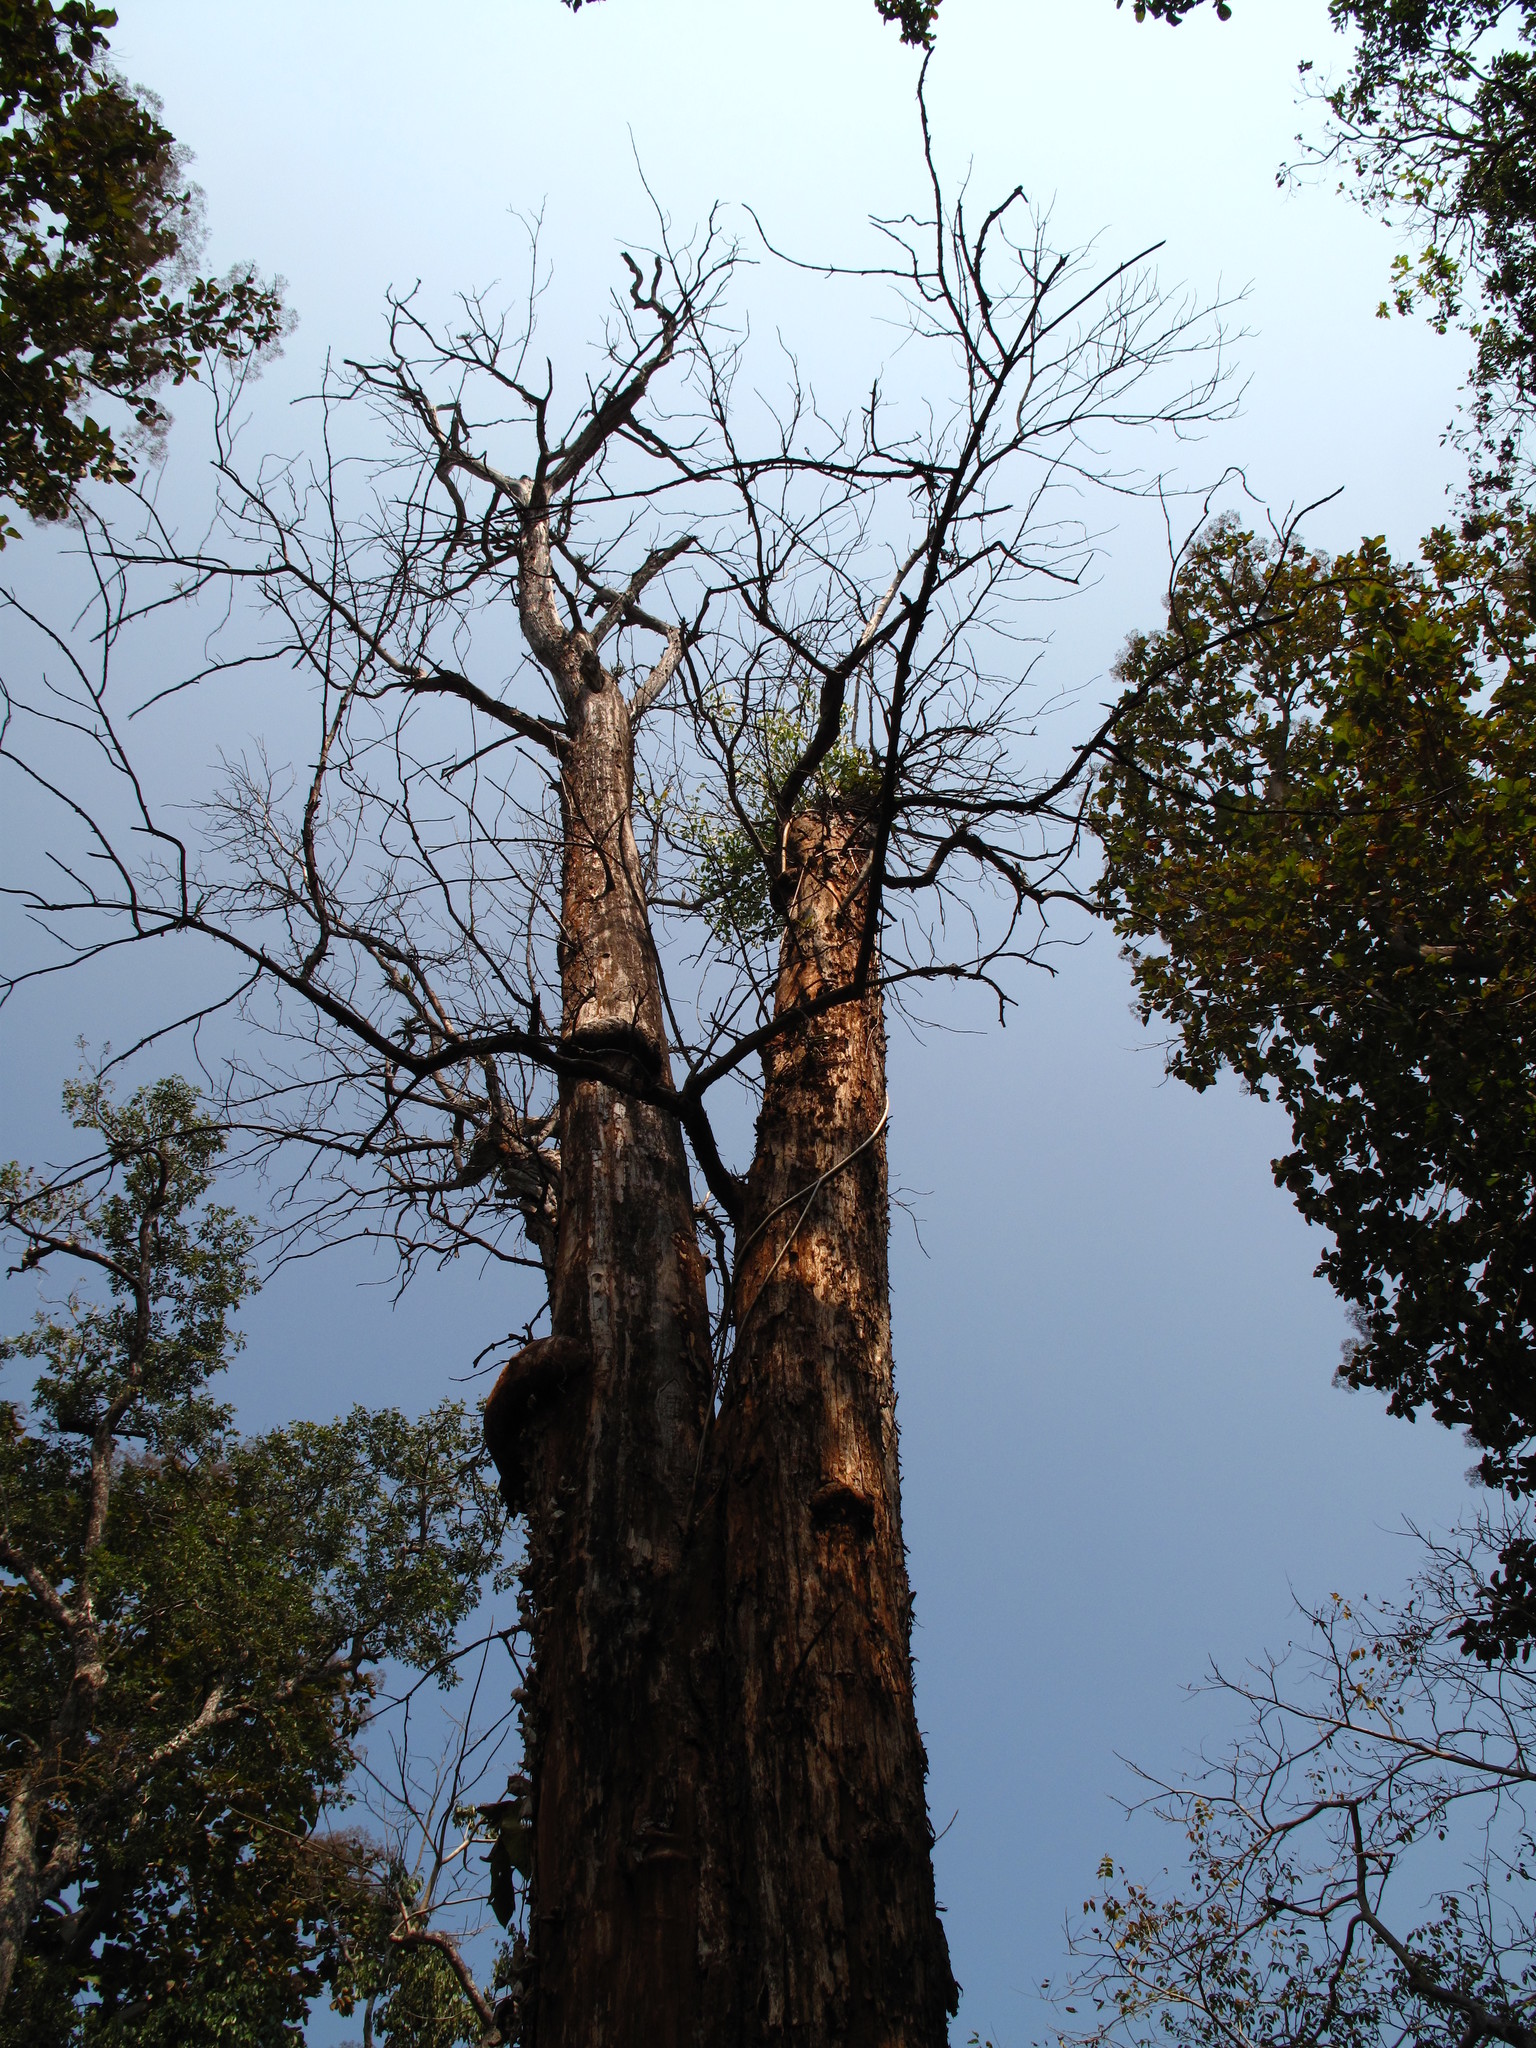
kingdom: Plantae
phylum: Tracheophyta
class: Magnoliopsida
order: Lamiales
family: Lamiaceae
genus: Tectona
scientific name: Tectona grandis
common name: Teak
